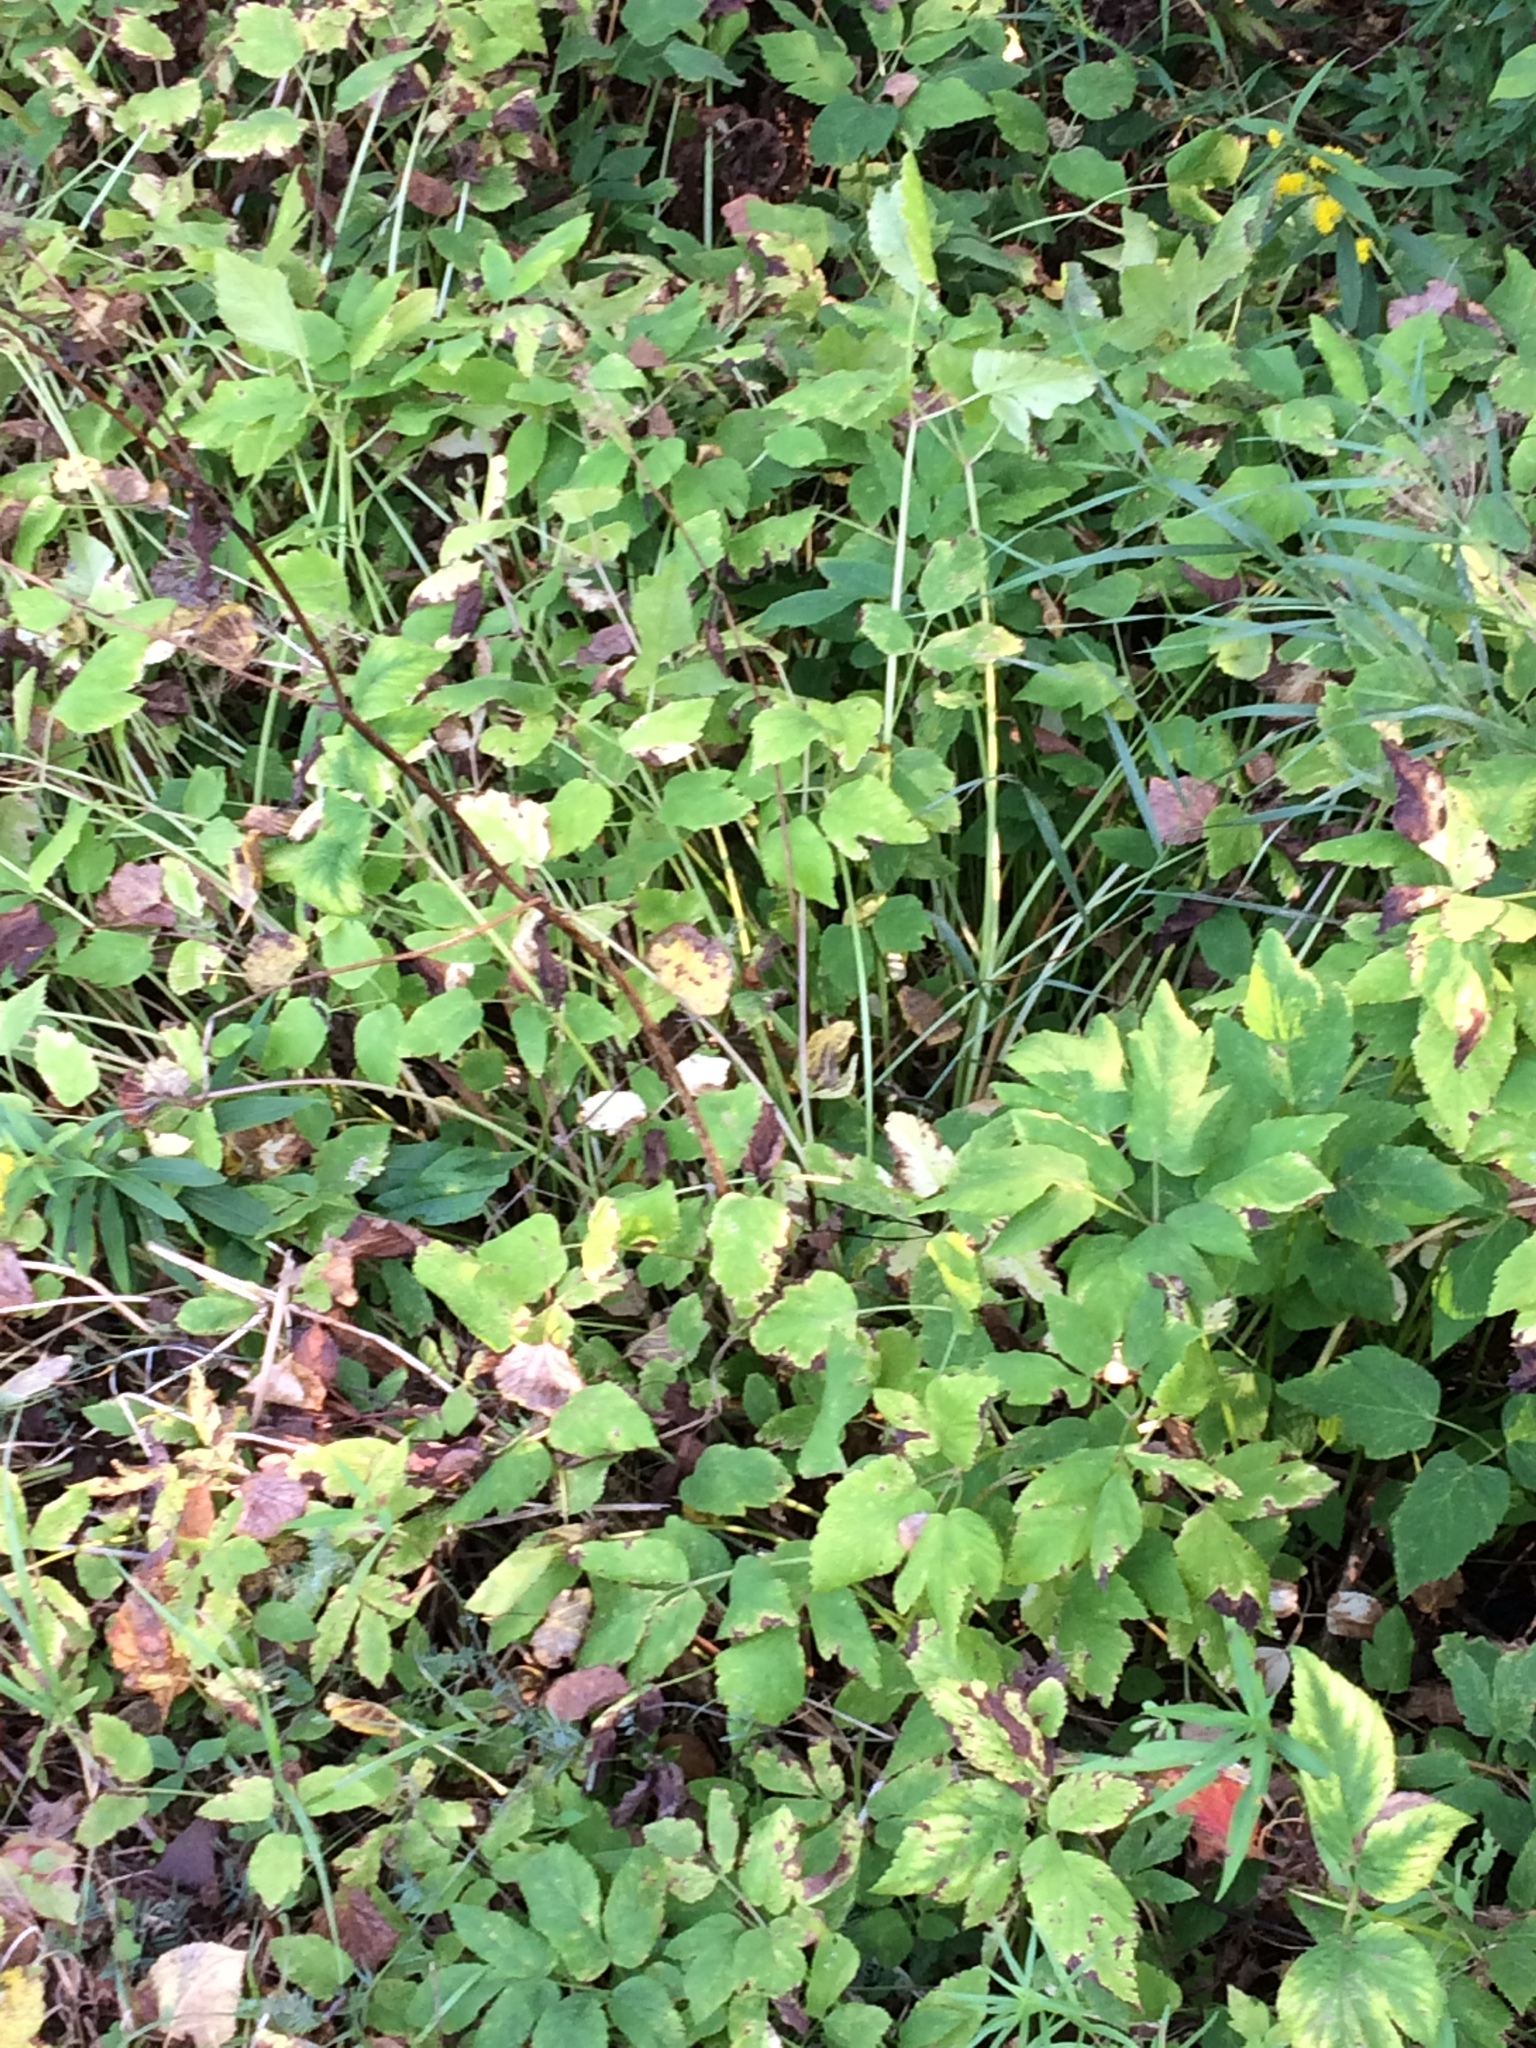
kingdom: Plantae
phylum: Tracheophyta
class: Magnoliopsida
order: Apiales
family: Apiaceae
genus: Aegopodium
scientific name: Aegopodium podagraria
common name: Ground-elder
